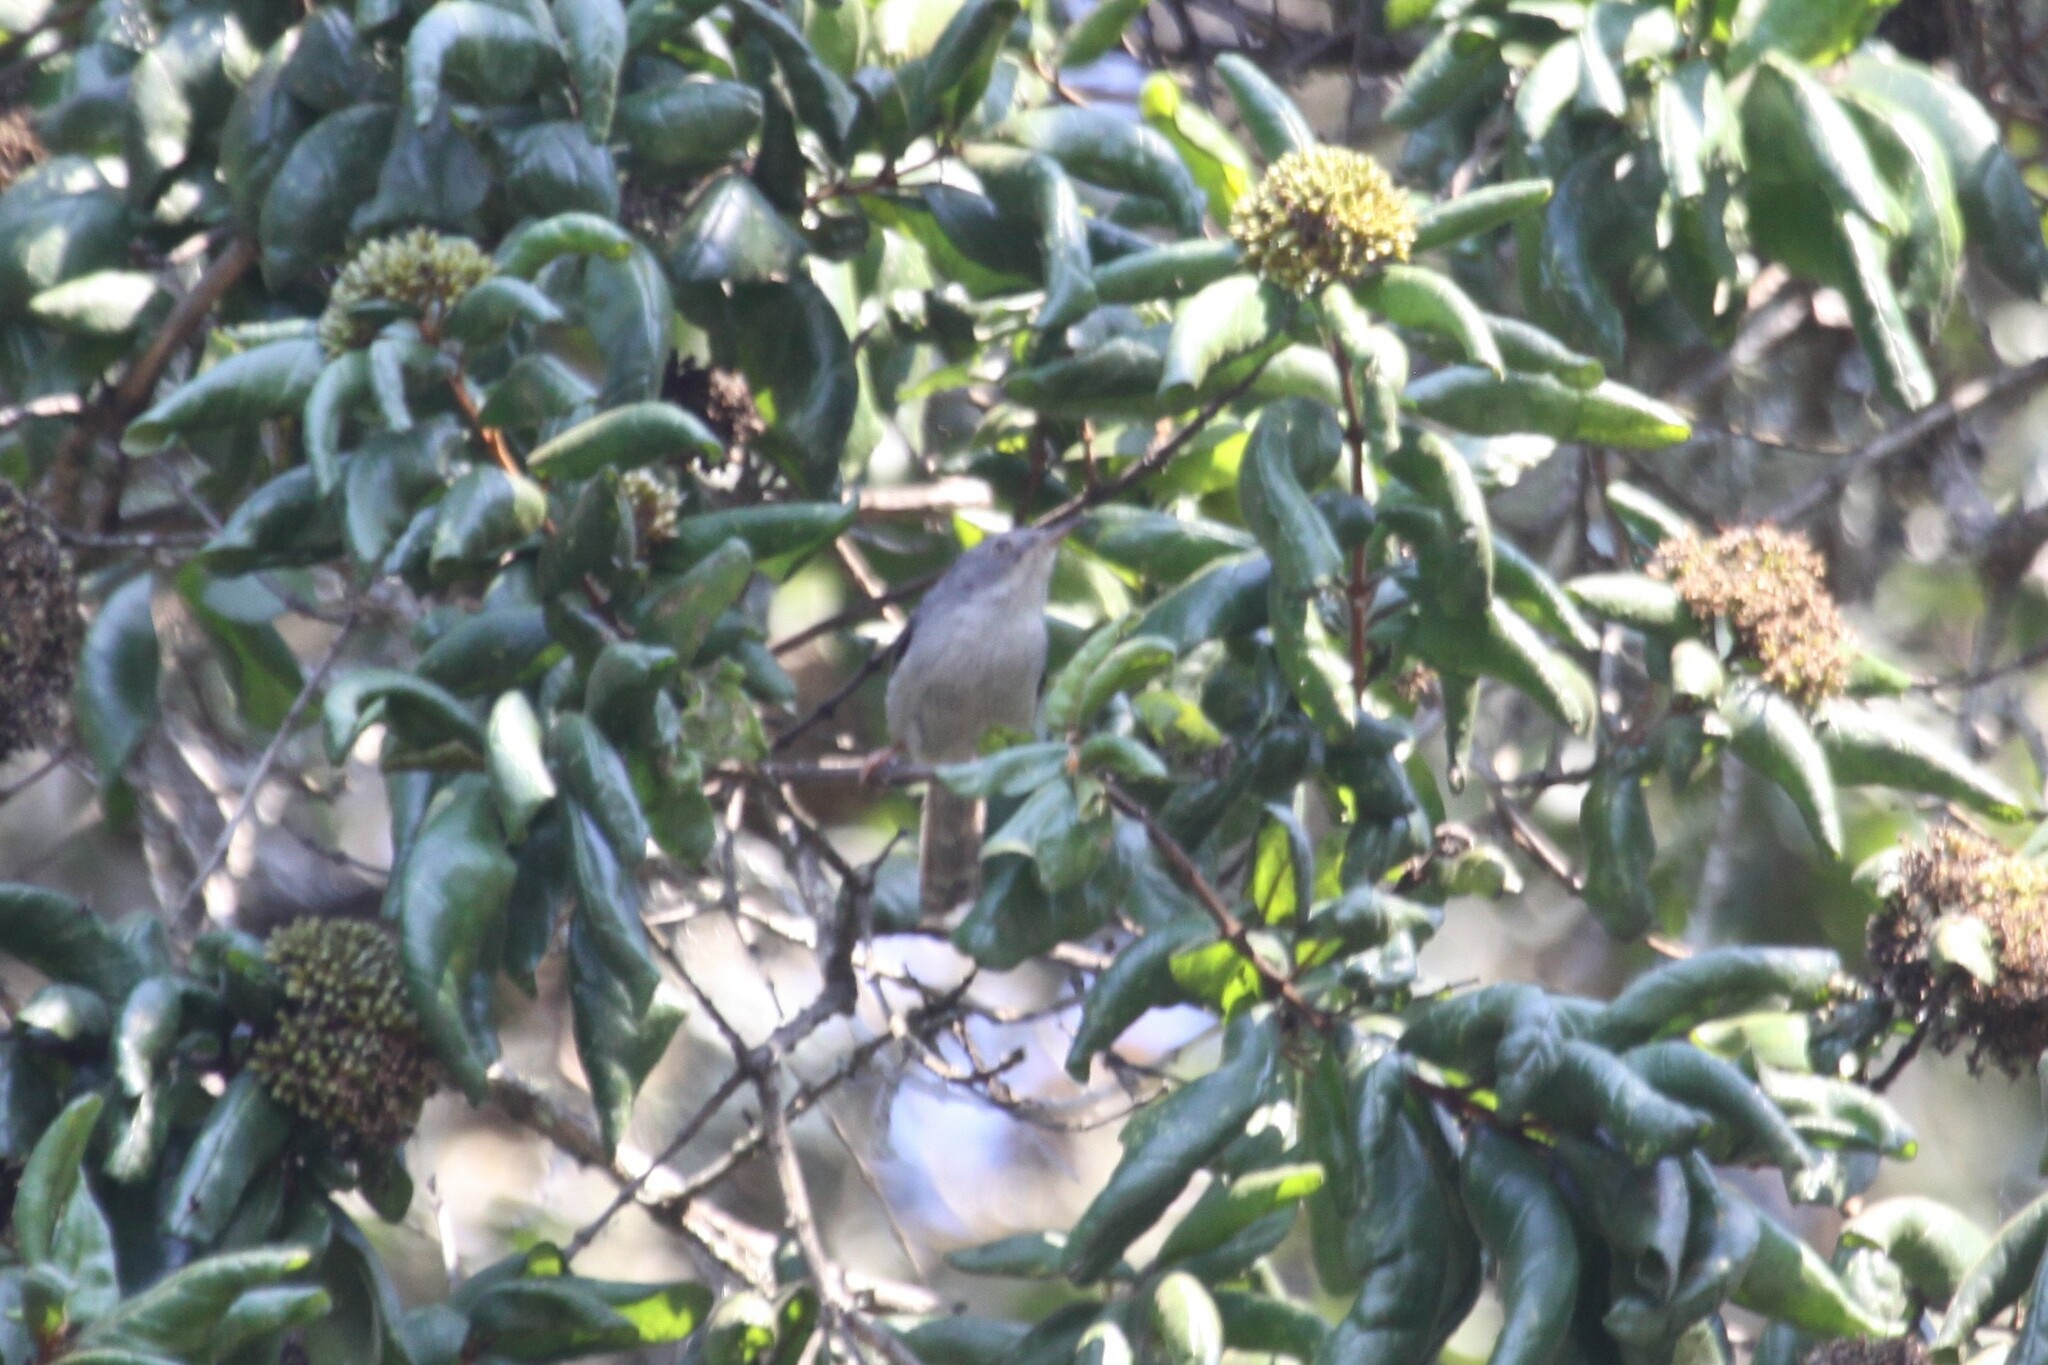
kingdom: Animalia
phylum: Chordata
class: Aves
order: Passeriformes
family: Cisticolidae
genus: Apalis
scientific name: Apalis chirindensis
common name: Chirinda apalis
